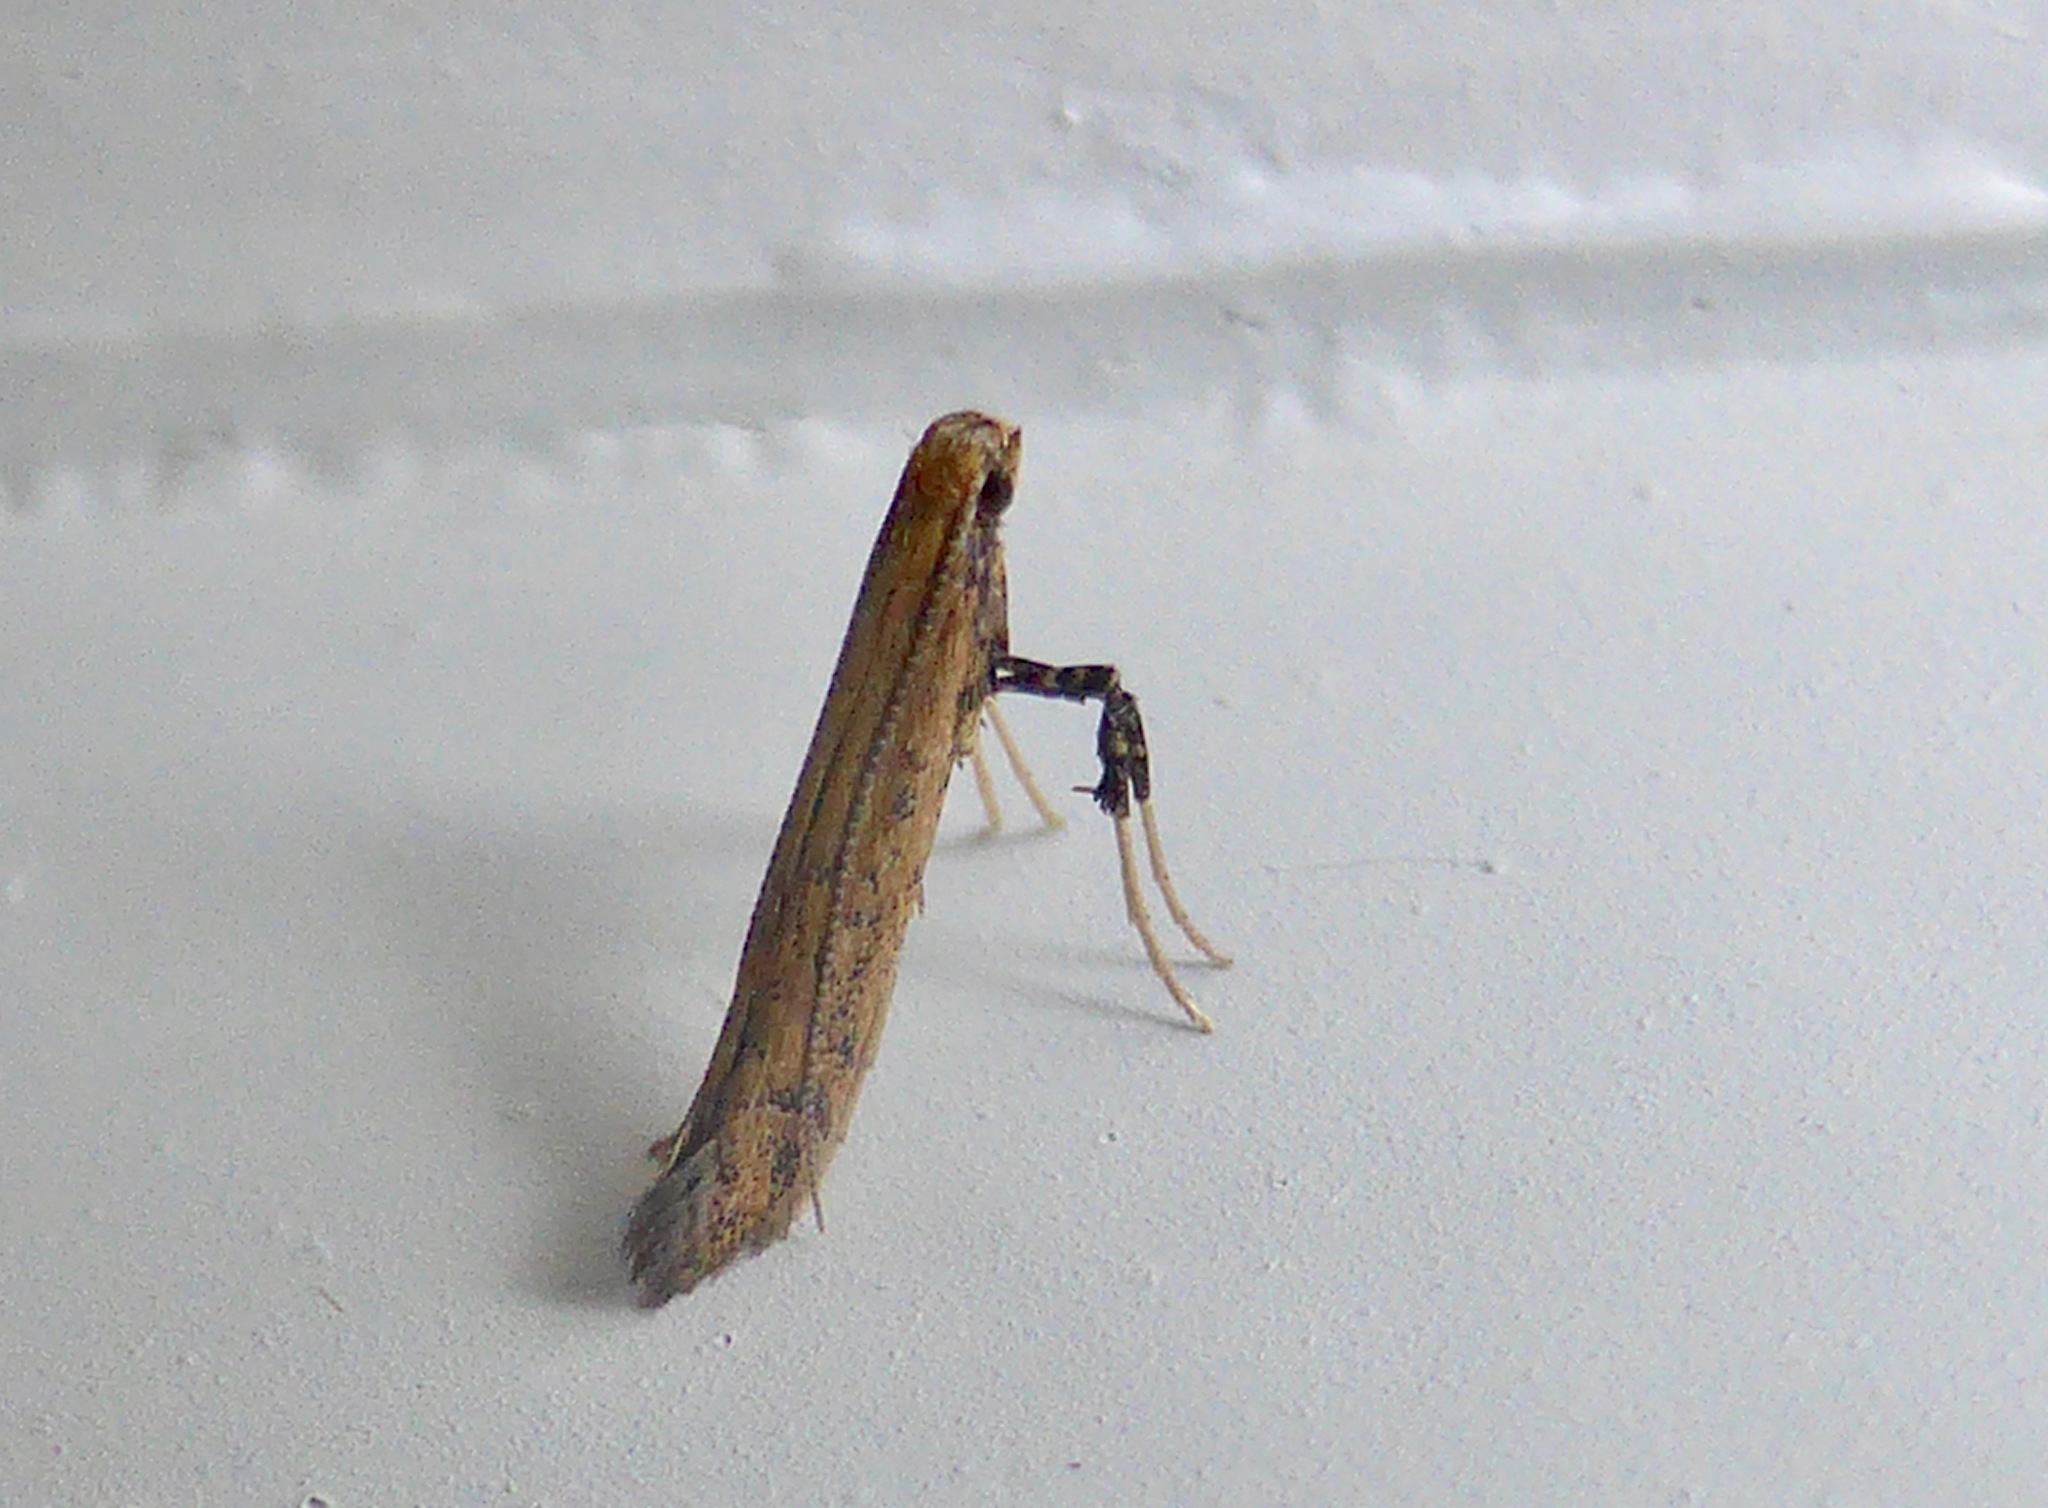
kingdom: Animalia
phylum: Arthropoda
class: Insecta
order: Lepidoptera
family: Gracillariidae
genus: Sabulopteryx
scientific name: Sabulopteryx botanica
